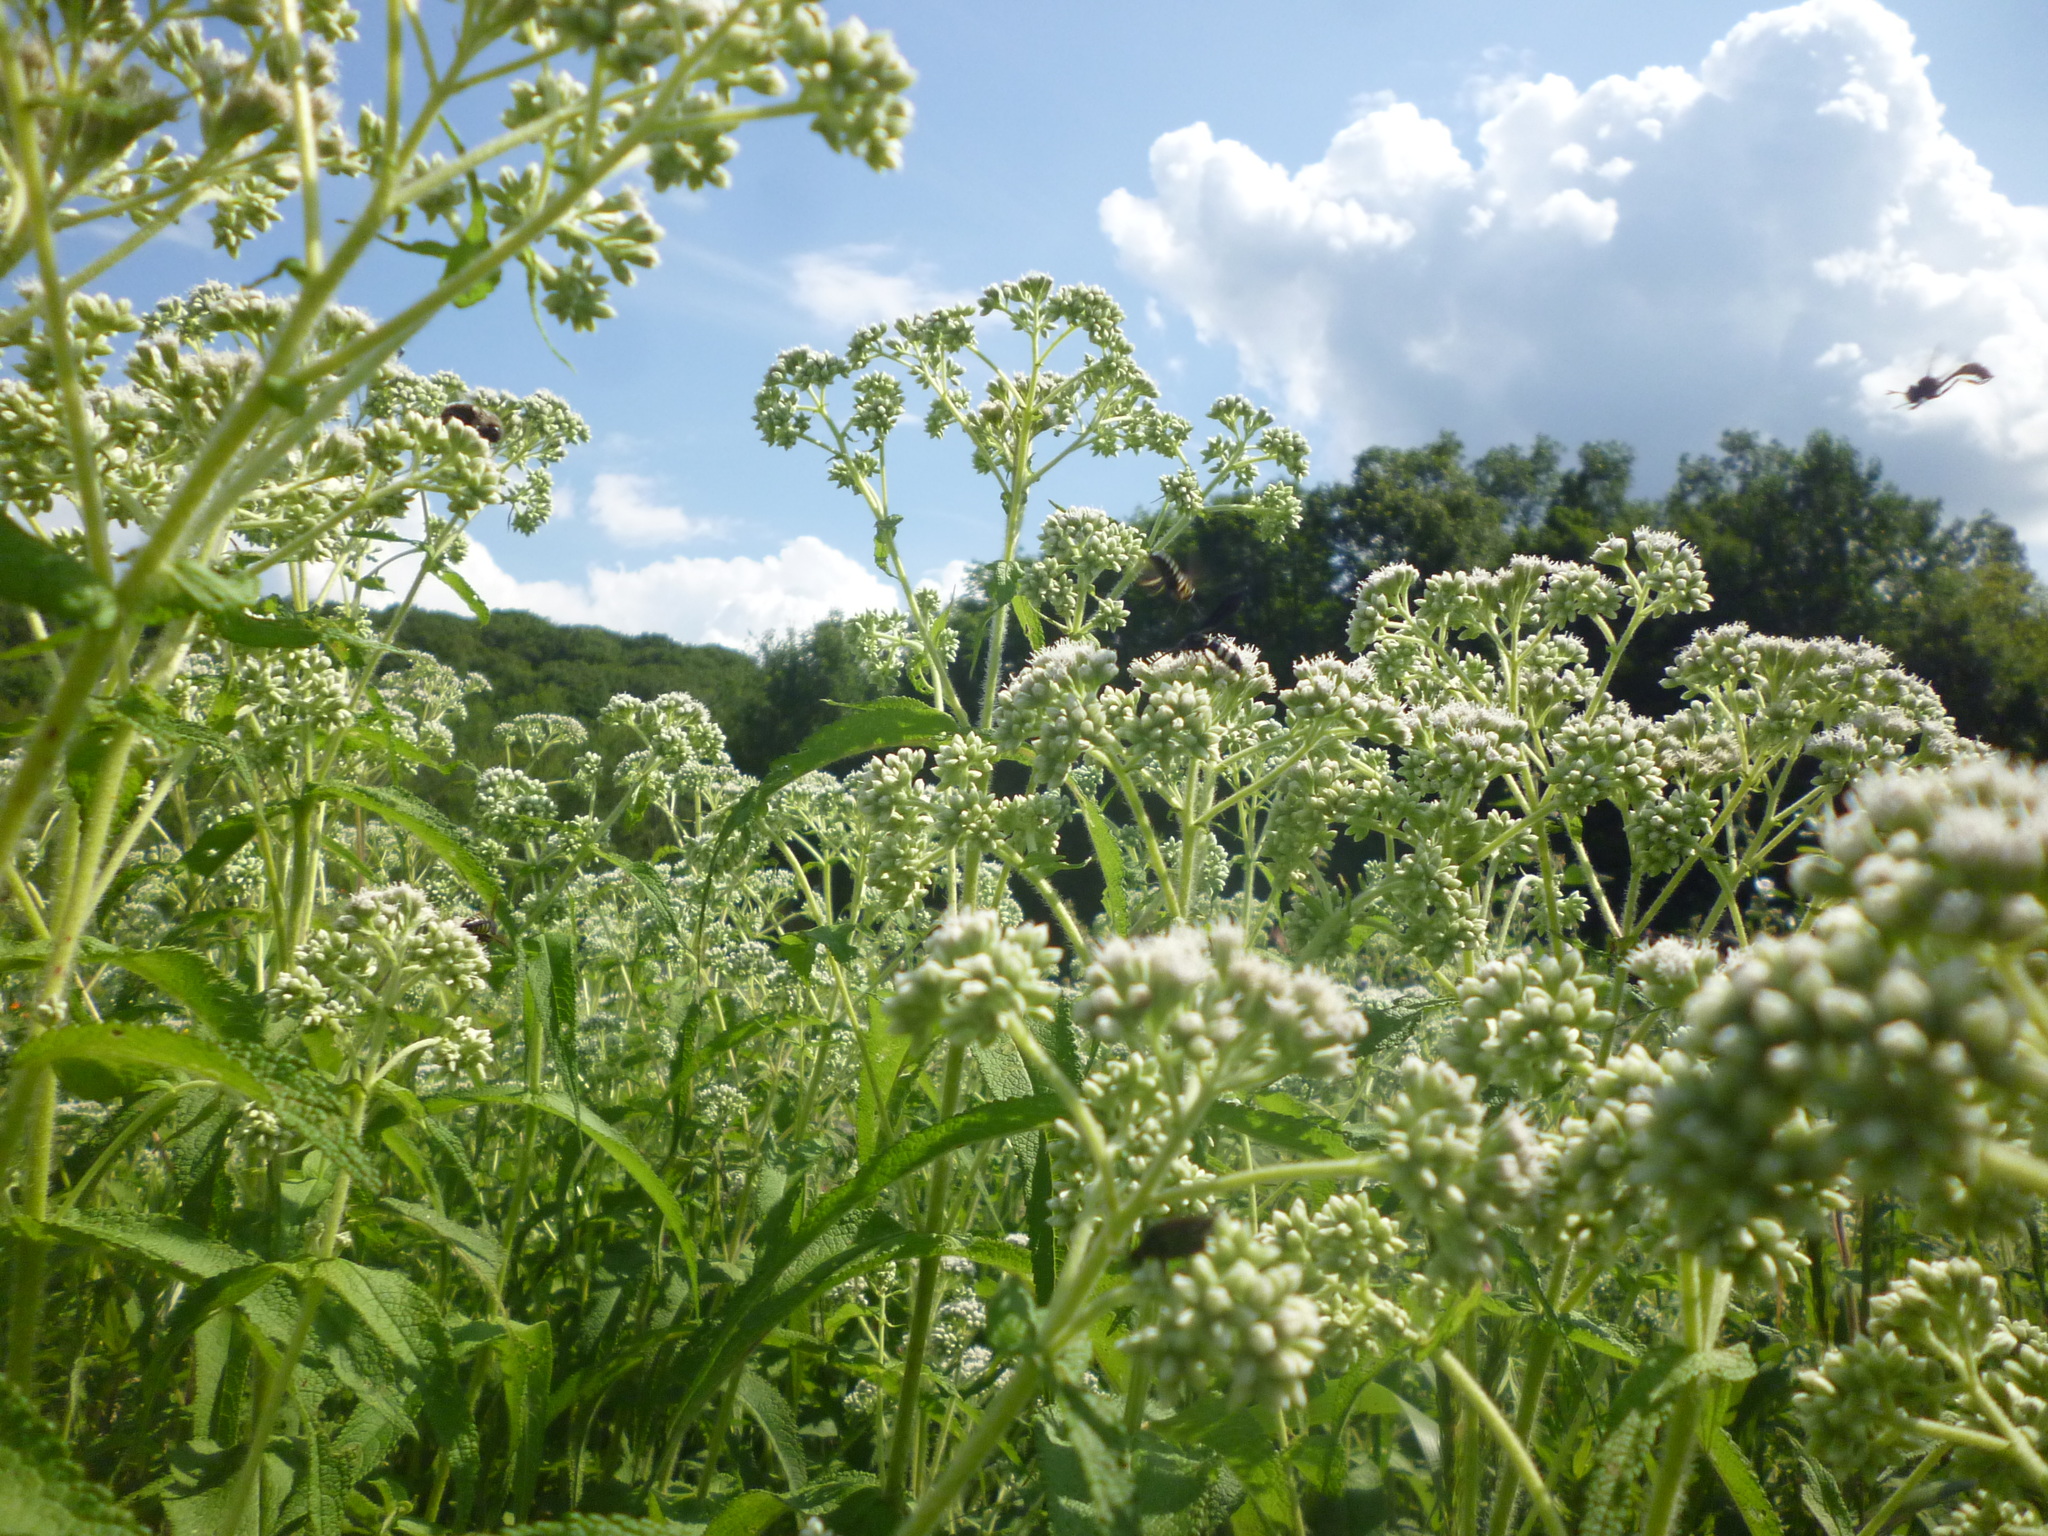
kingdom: Plantae
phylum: Tracheophyta
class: Magnoliopsida
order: Asterales
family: Asteraceae
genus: Eupatorium
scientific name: Eupatorium perfoliatum
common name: Boneset
